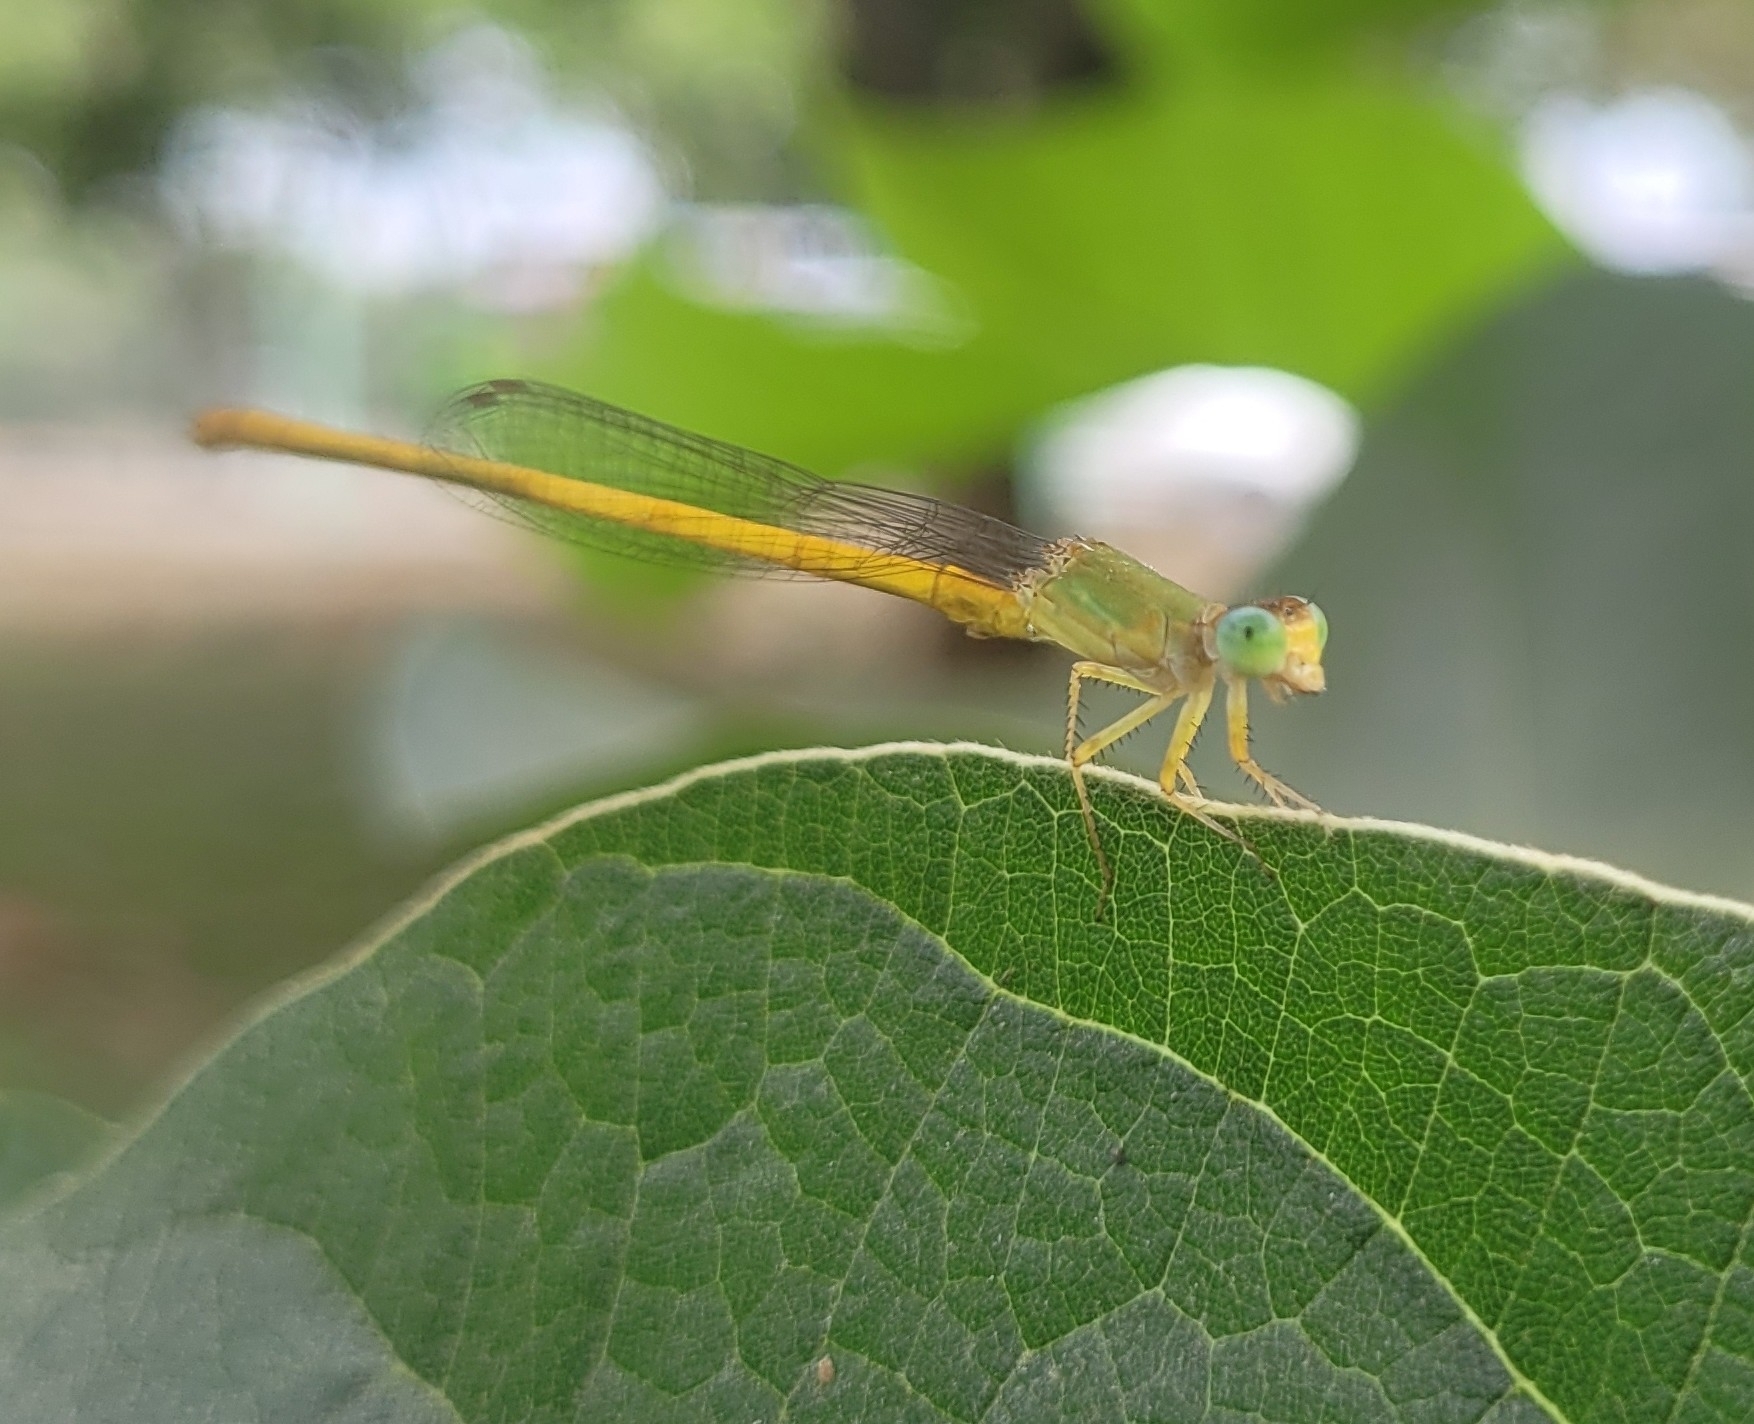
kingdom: Animalia
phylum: Arthropoda
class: Insecta
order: Odonata
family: Coenagrionidae
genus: Ceriagrion
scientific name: Ceriagrion coromandelianum
